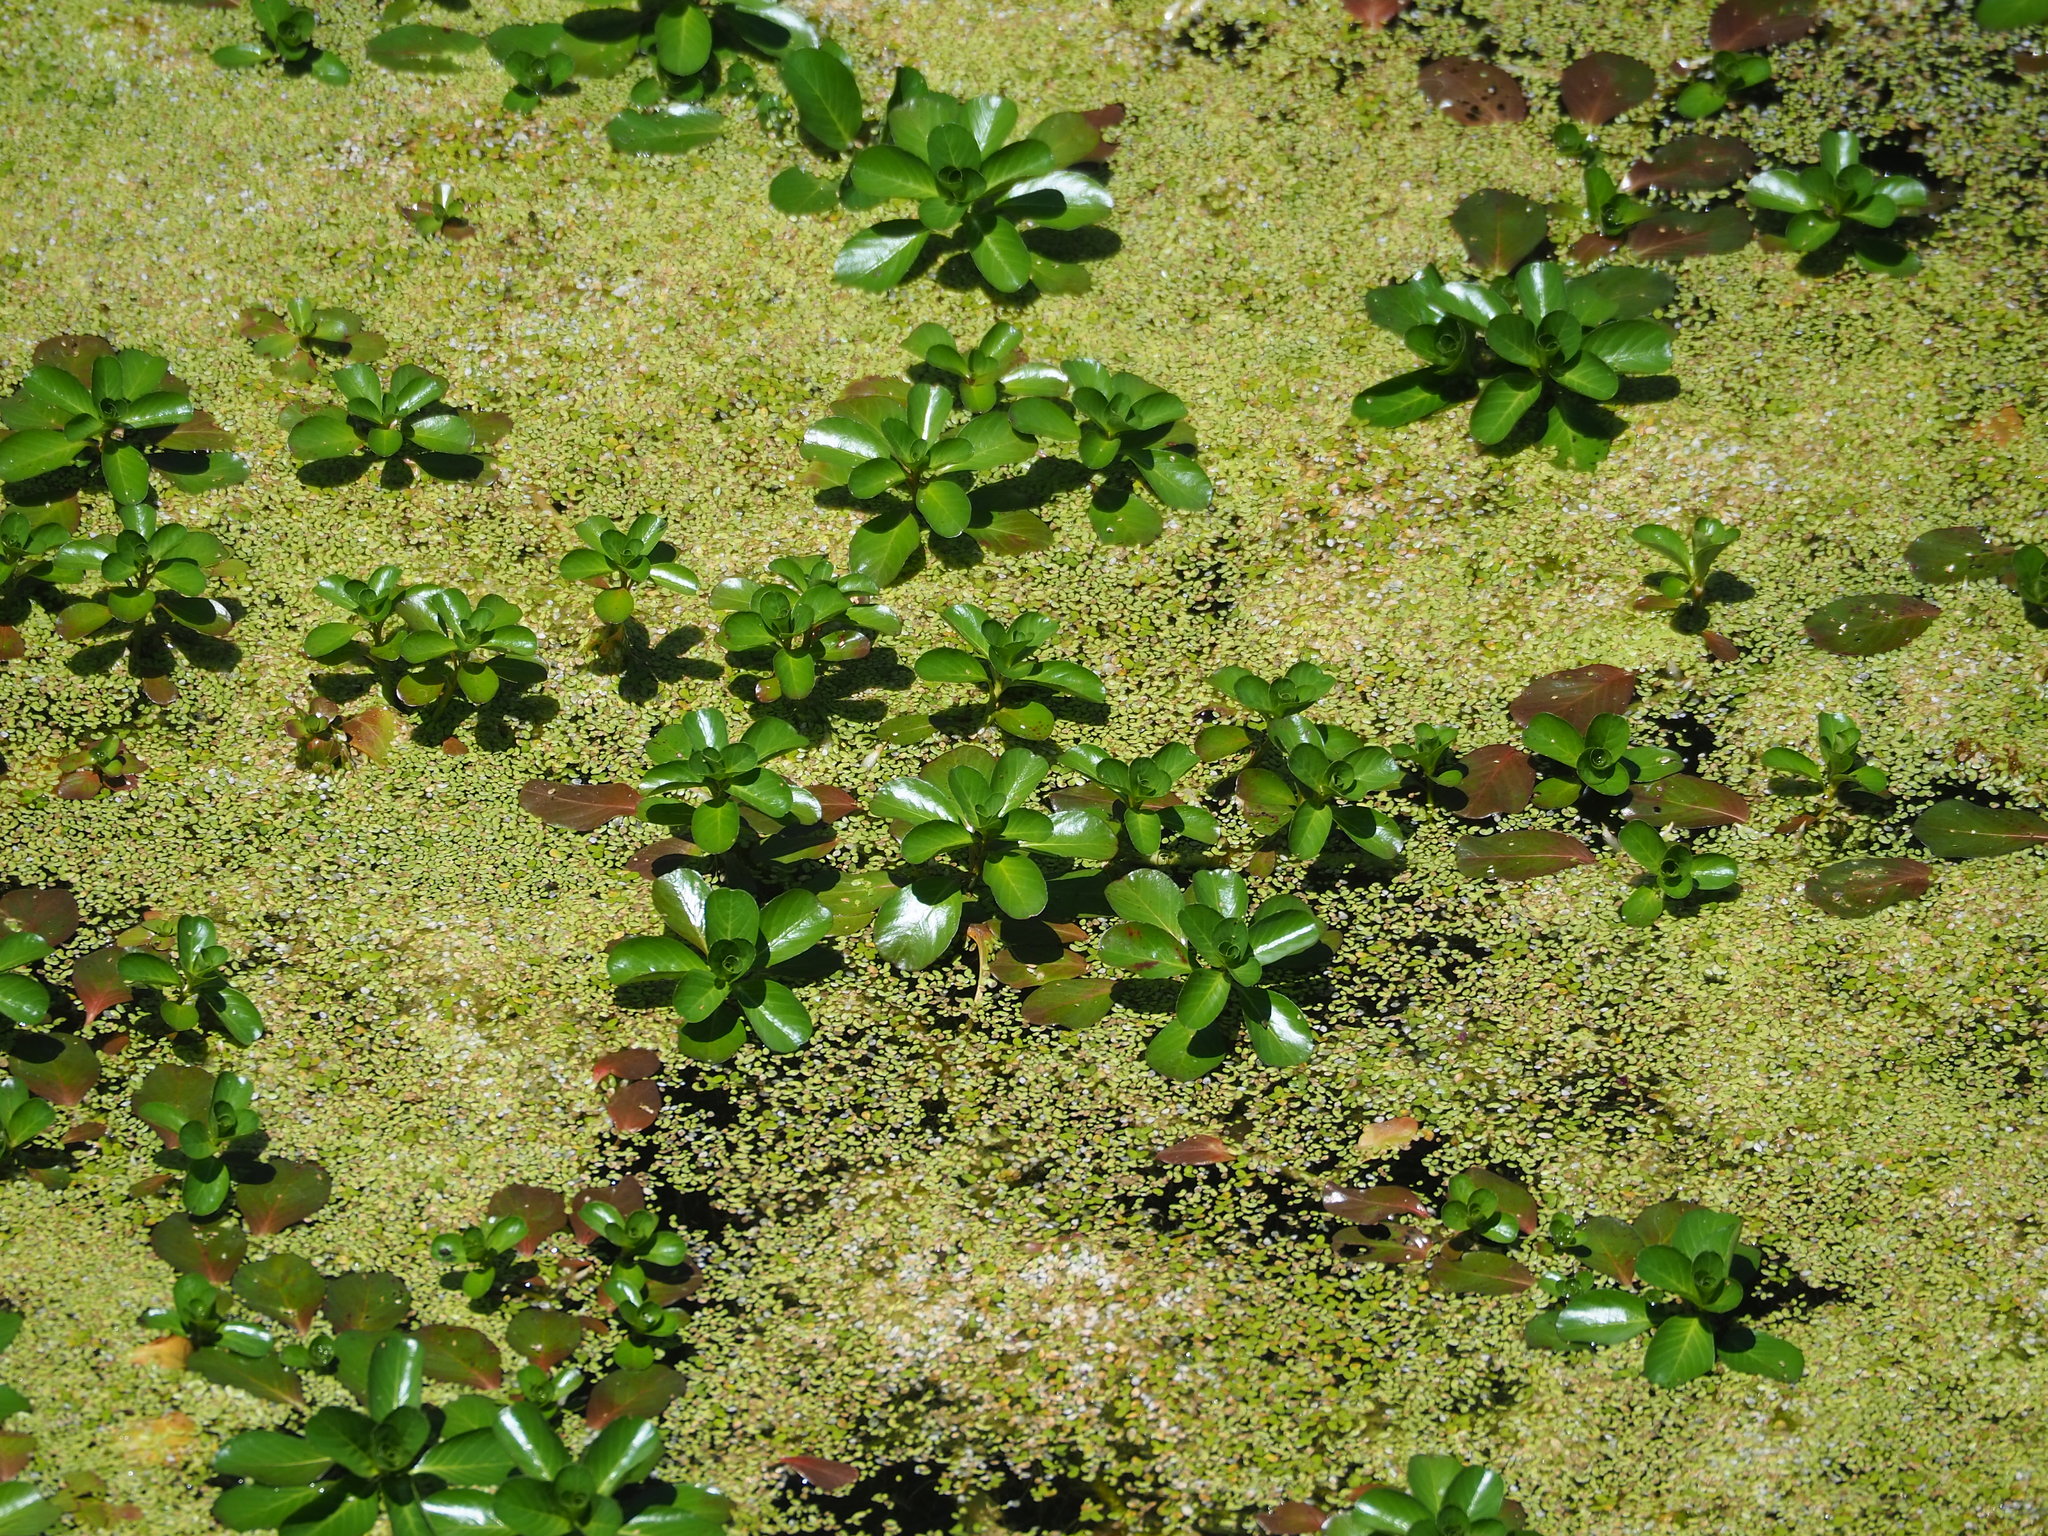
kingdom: Plantae
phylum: Tracheophyta
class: Magnoliopsida
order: Myrtales
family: Onagraceae
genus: Ludwigia
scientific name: Ludwigia taiwanensis
